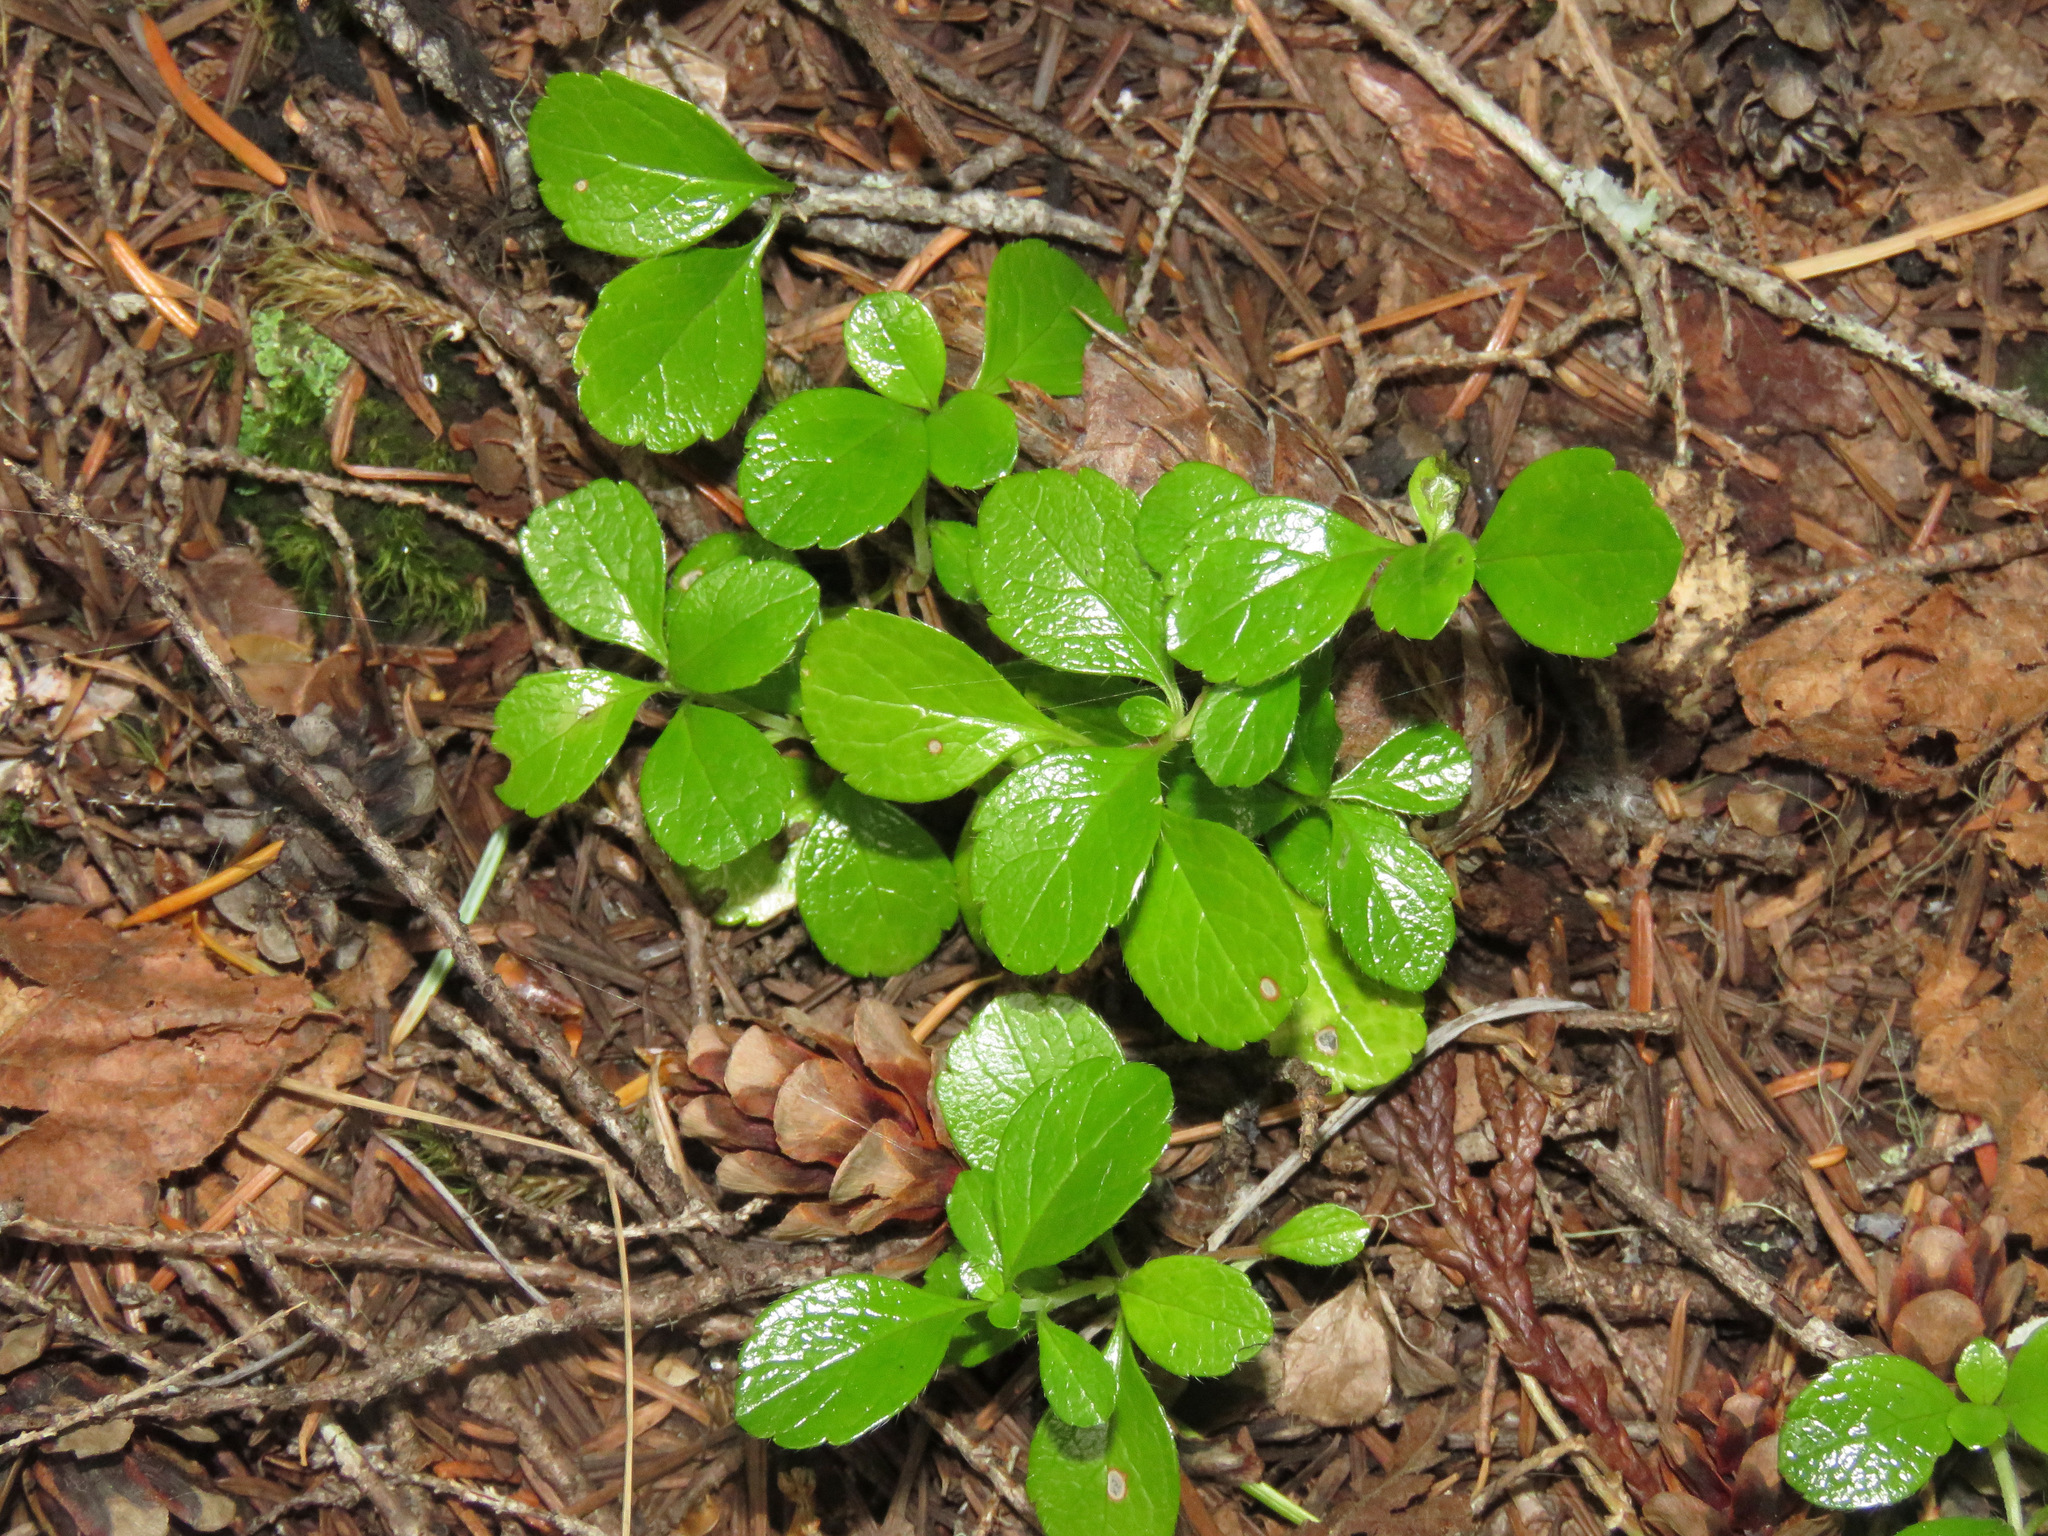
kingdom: Plantae
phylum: Tracheophyta
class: Magnoliopsida
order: Dipsacales
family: Caprifoliaceae
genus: Linnaea
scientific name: Linnaea borealis
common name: Twinflower
